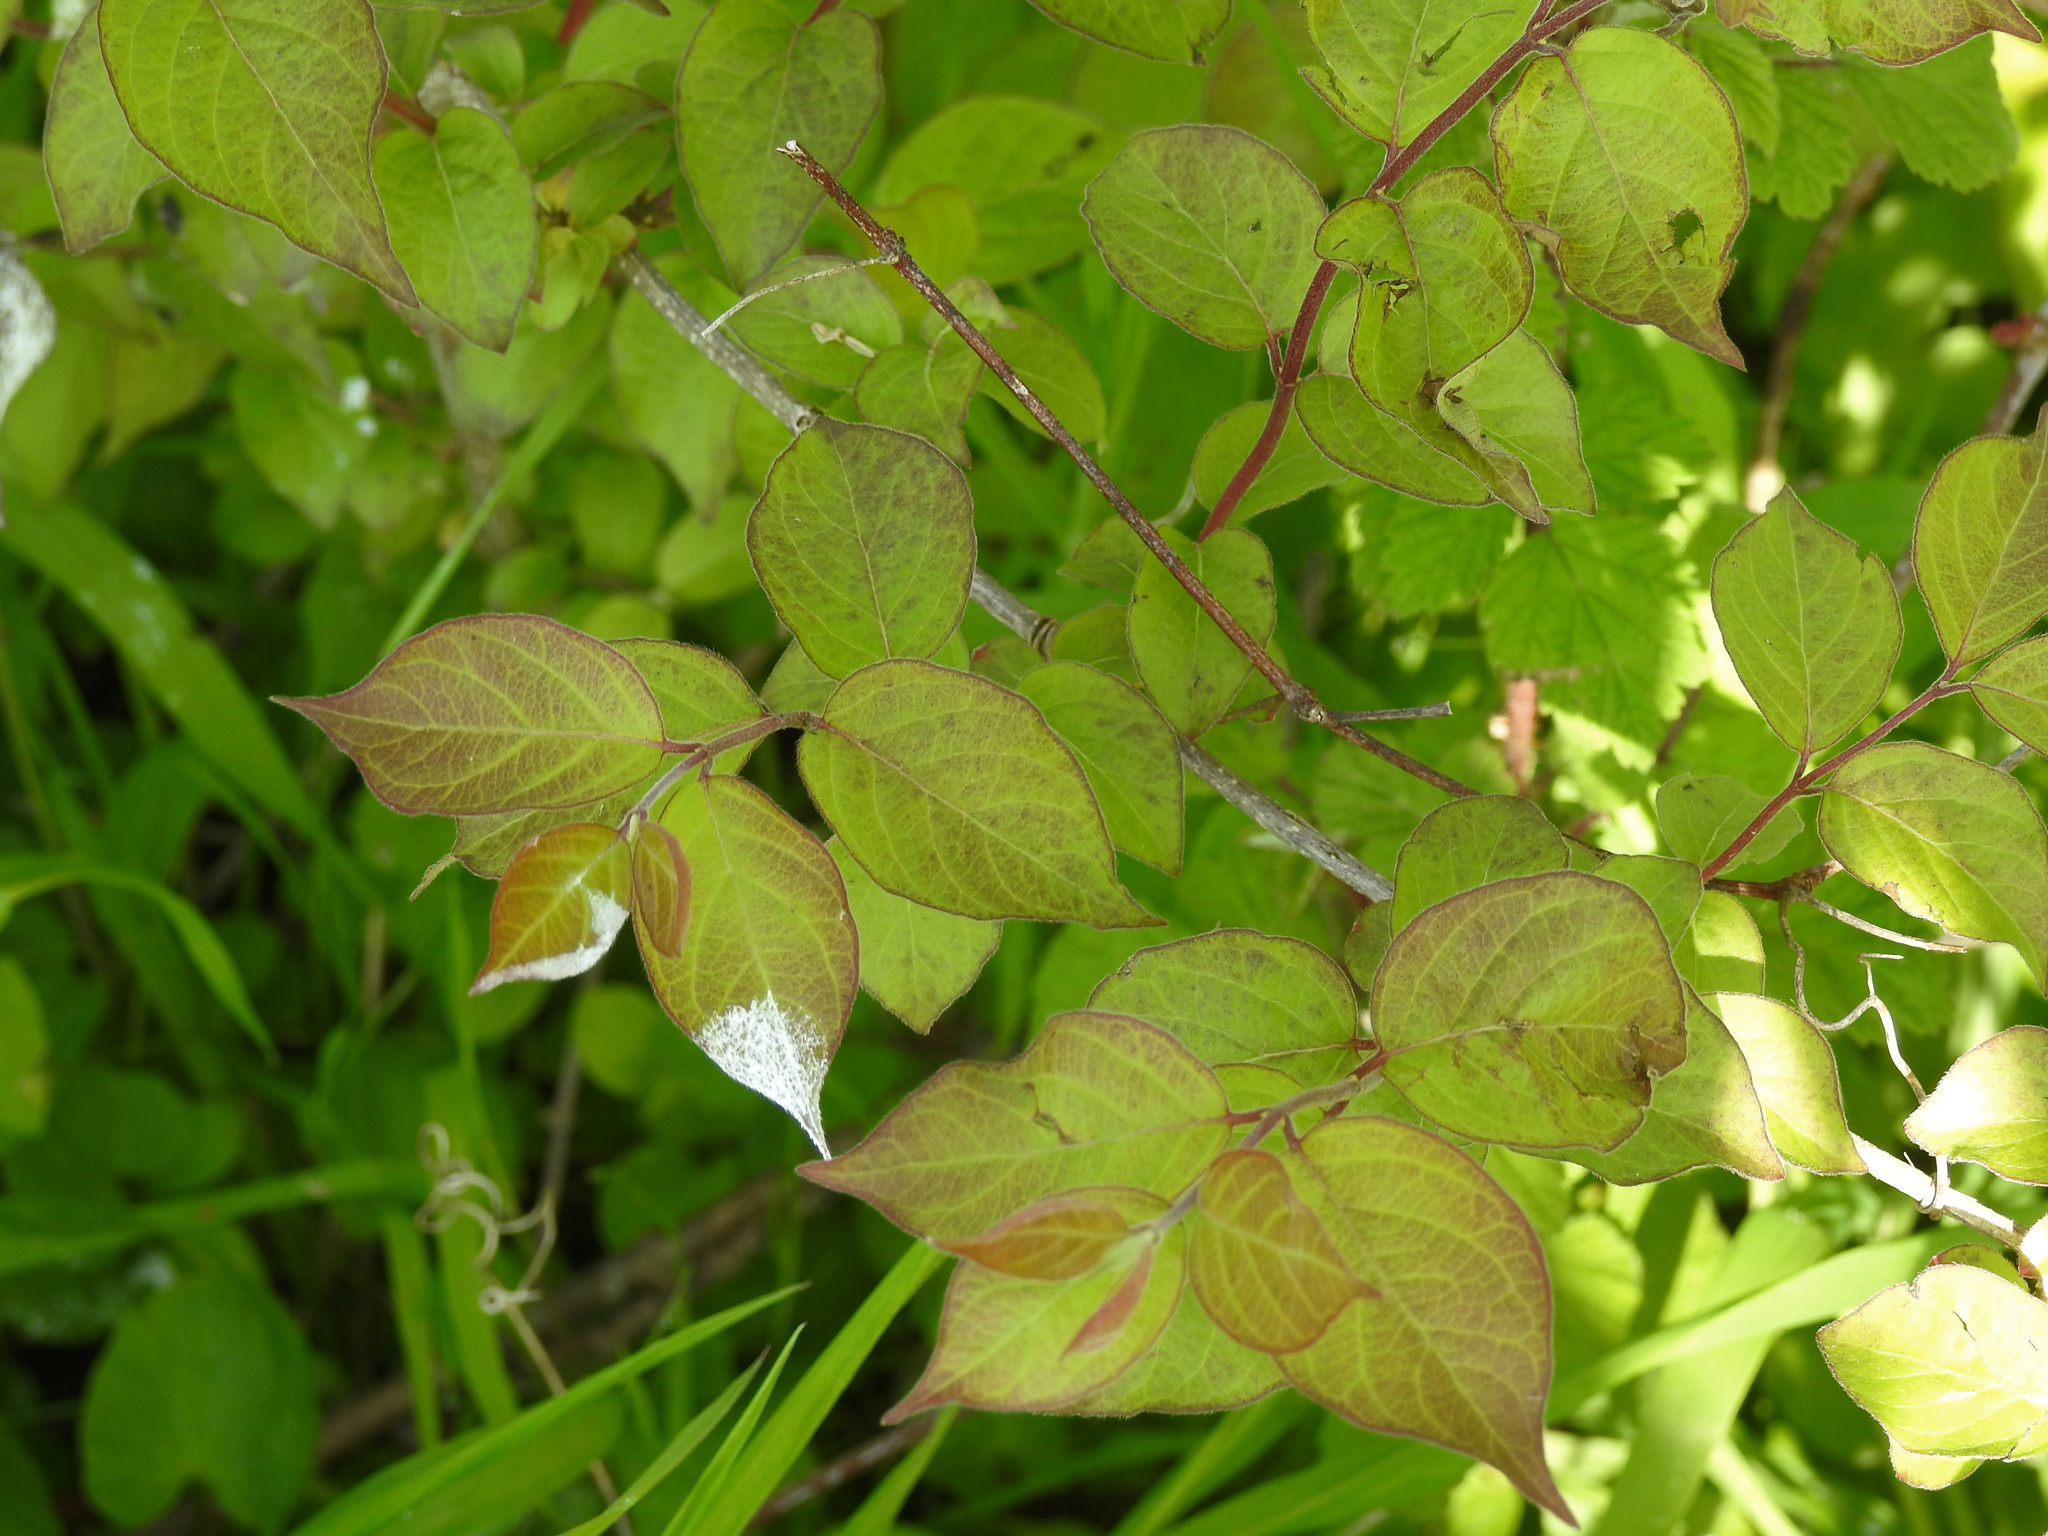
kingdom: Plantae
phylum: Tracheophyta
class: Magnoliopsida
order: Dipsacales
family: Caprifoliaceae
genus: Lonicera
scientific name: Lonicera maackii
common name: Amur honeysuckle
